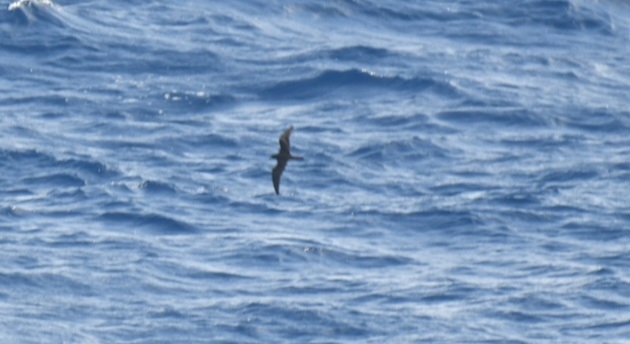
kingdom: Animalia
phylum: Chordata
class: Aves
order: Procellariiformes
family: Procellariidae
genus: Bulweria
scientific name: Bulweria bulwerii
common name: Bulwer's petrel
